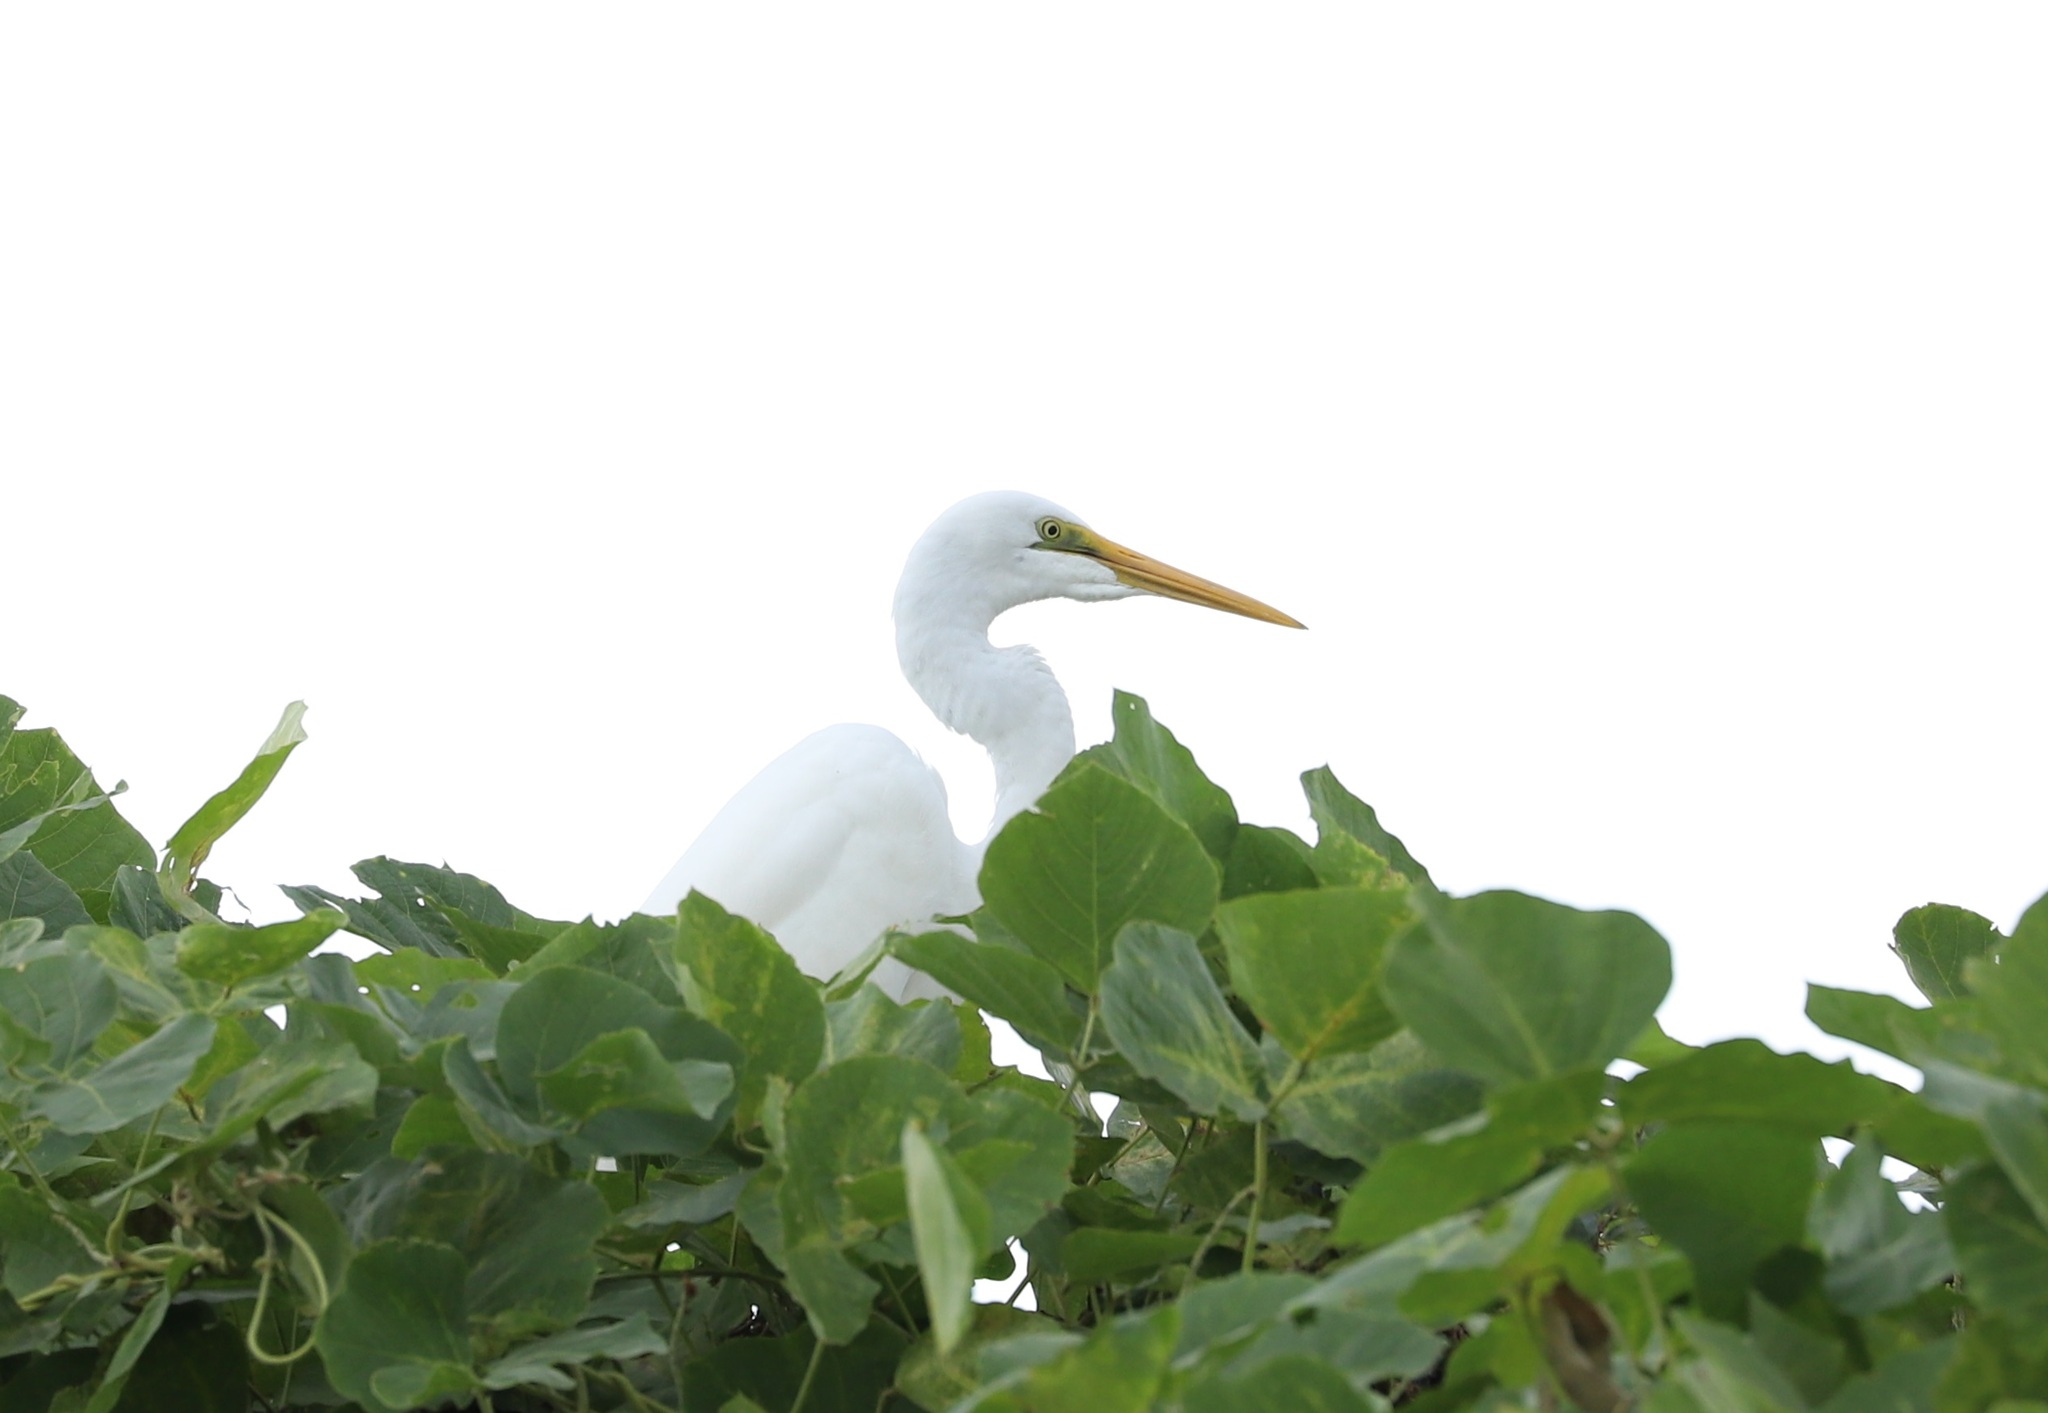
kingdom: Animalia
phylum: Chordata
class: Aves
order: Pelecaniformes
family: Ardeidae
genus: Ardea
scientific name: Ardea modesta
